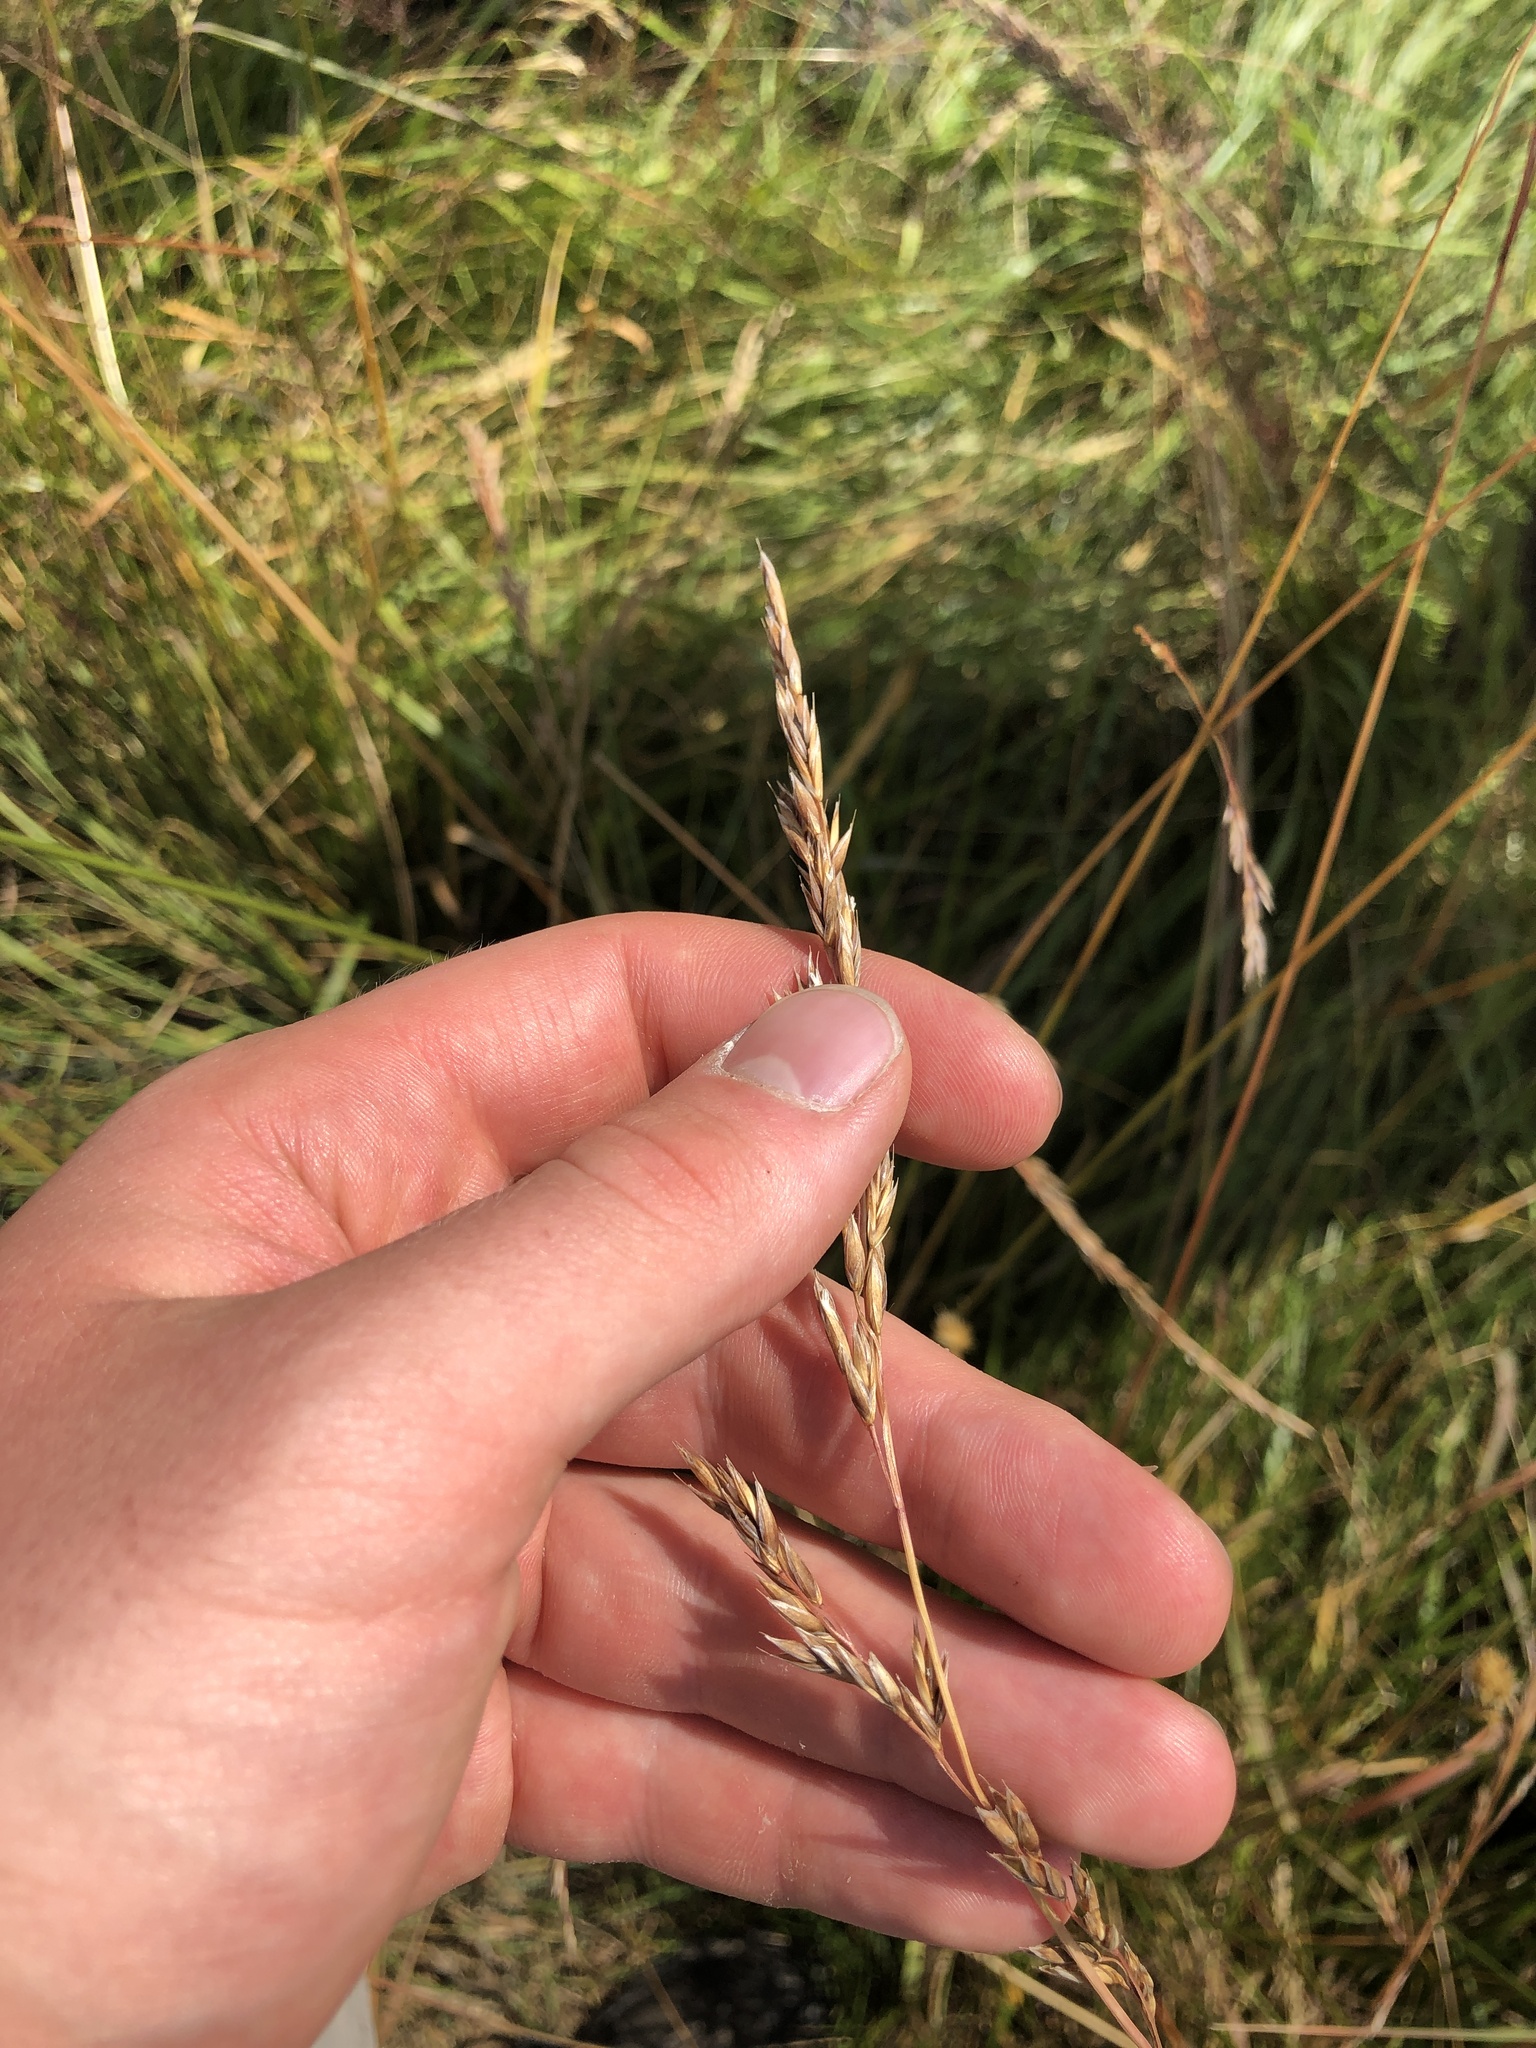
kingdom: Plantae
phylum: Tracheophyta
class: Liliopsida
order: Poales
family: Poaceae
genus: Lolium
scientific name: Lolium arundinaceum
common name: Reed fescue
